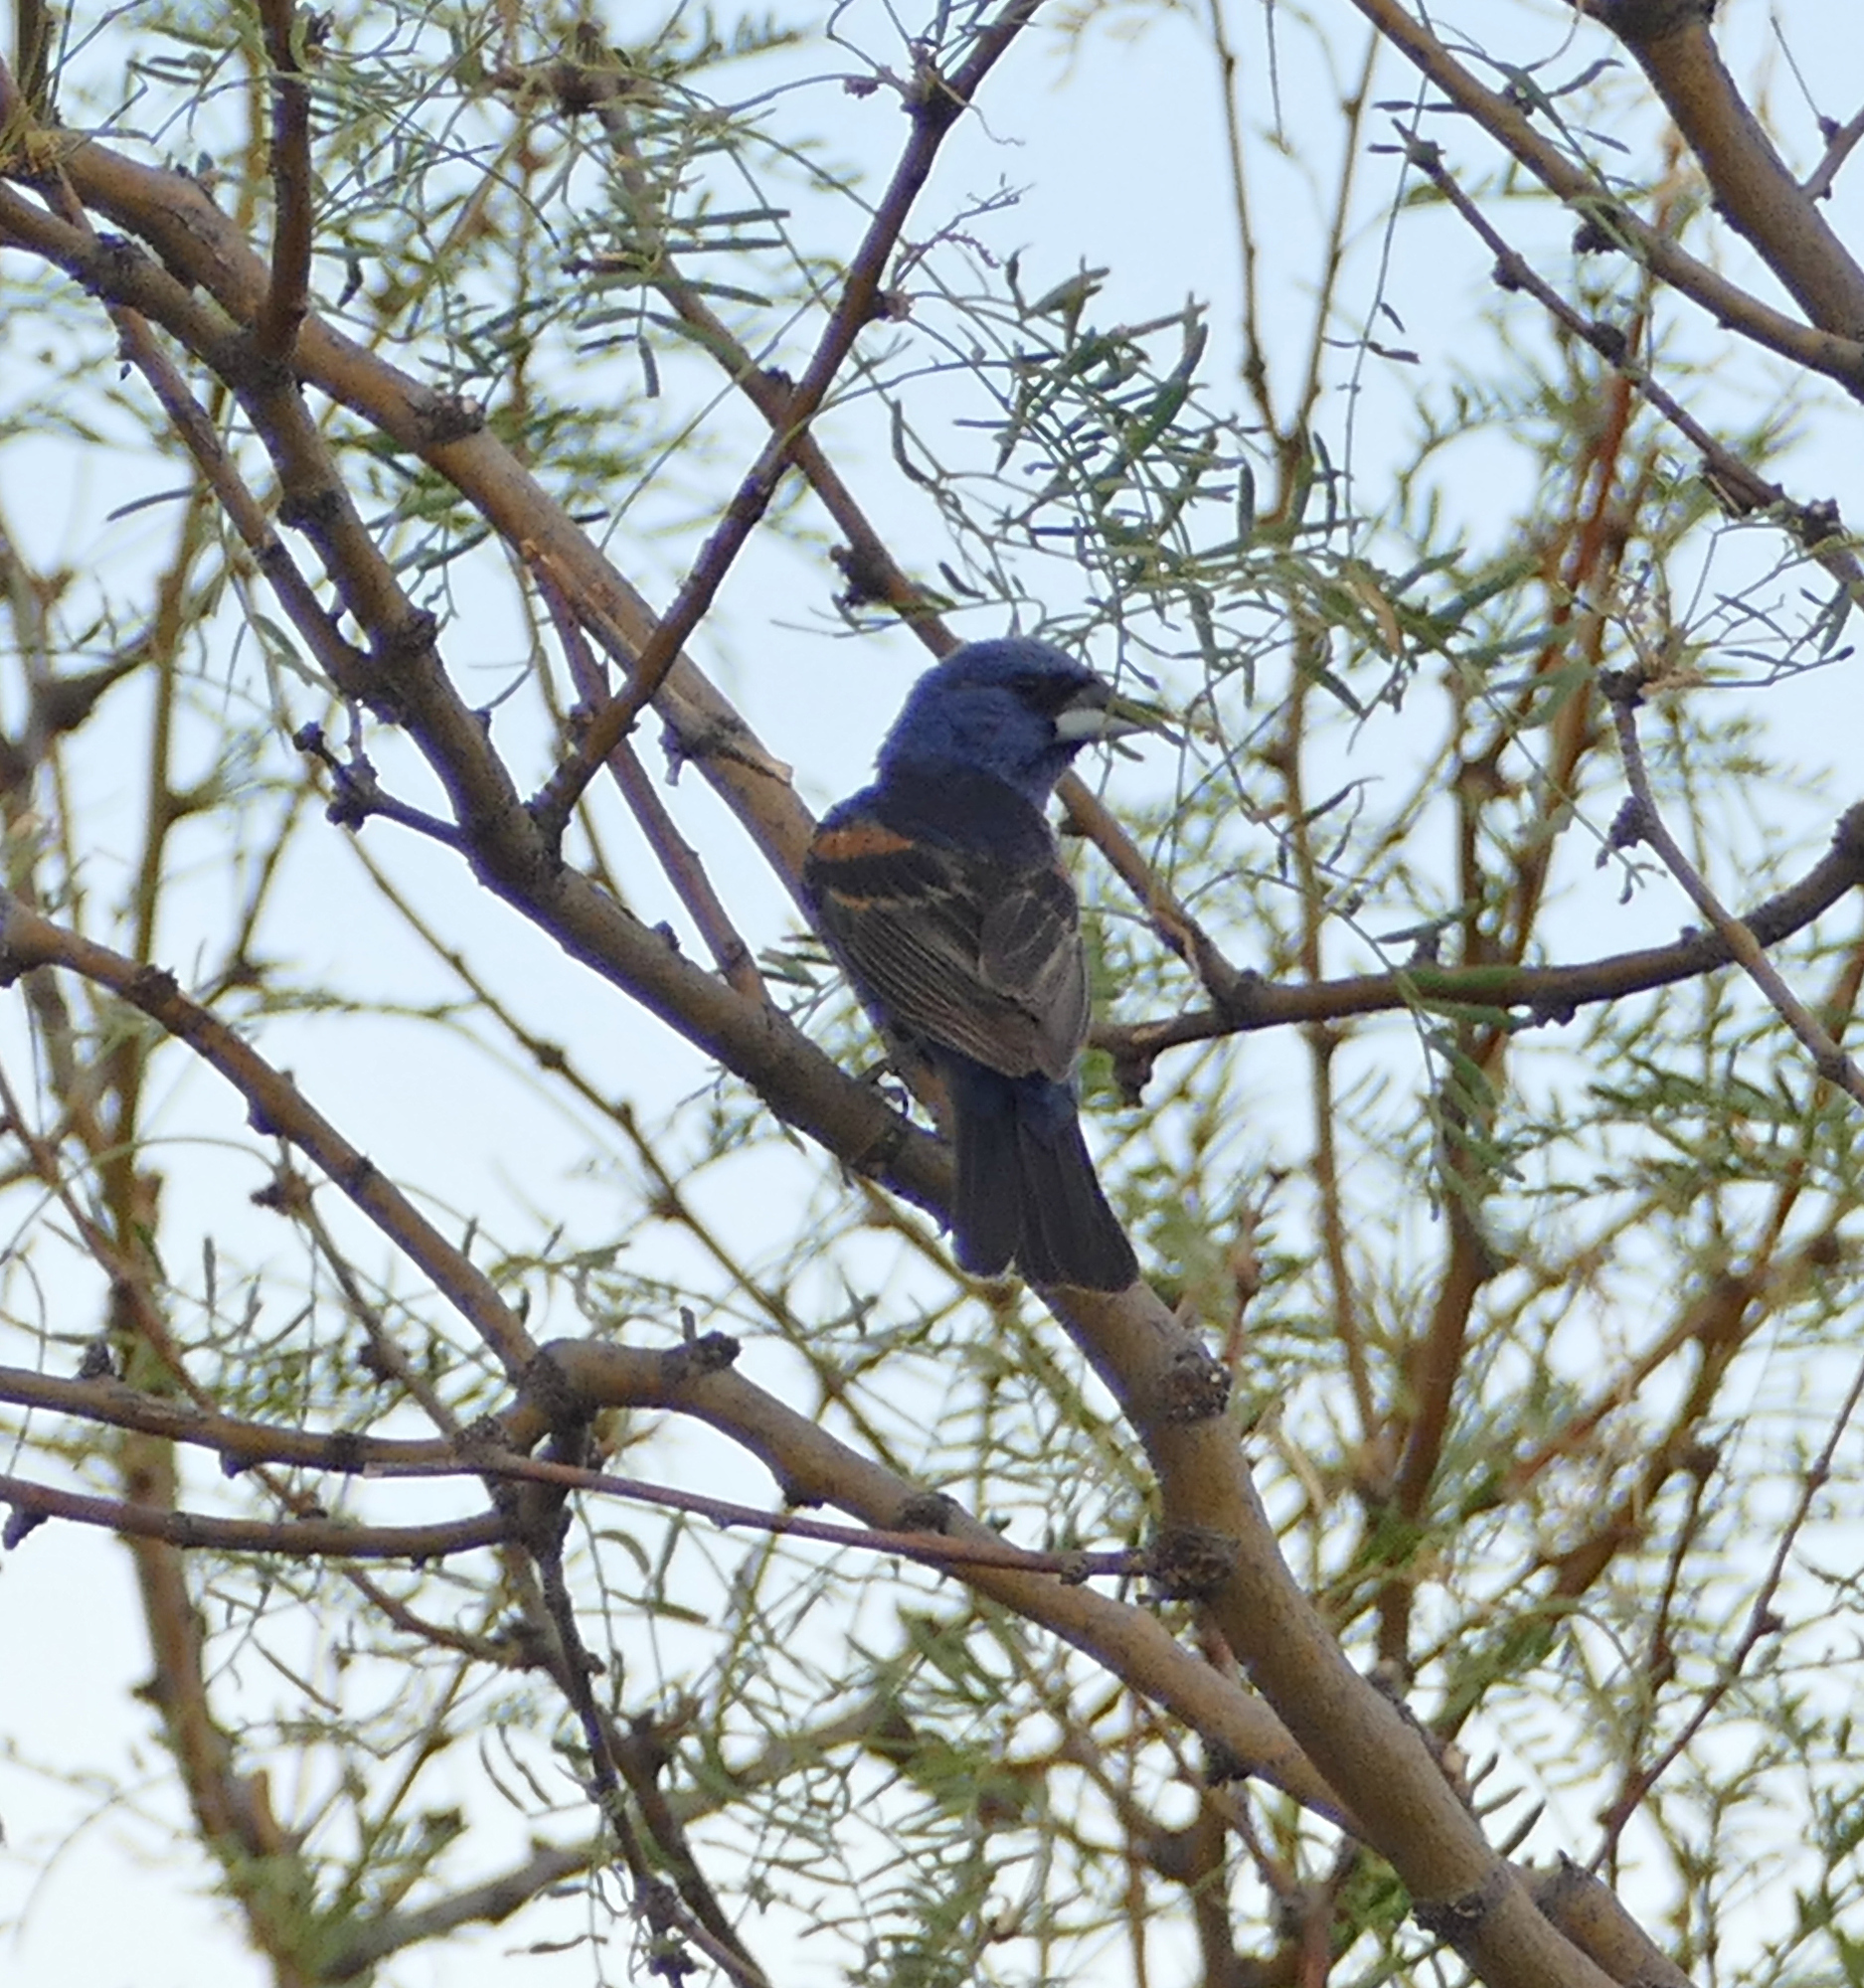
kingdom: Animalia
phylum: Chordata
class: Aves
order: Passeriformes
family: Cardinalidae
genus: Passerina
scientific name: Passerina caerulea
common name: Blue grosbeak
